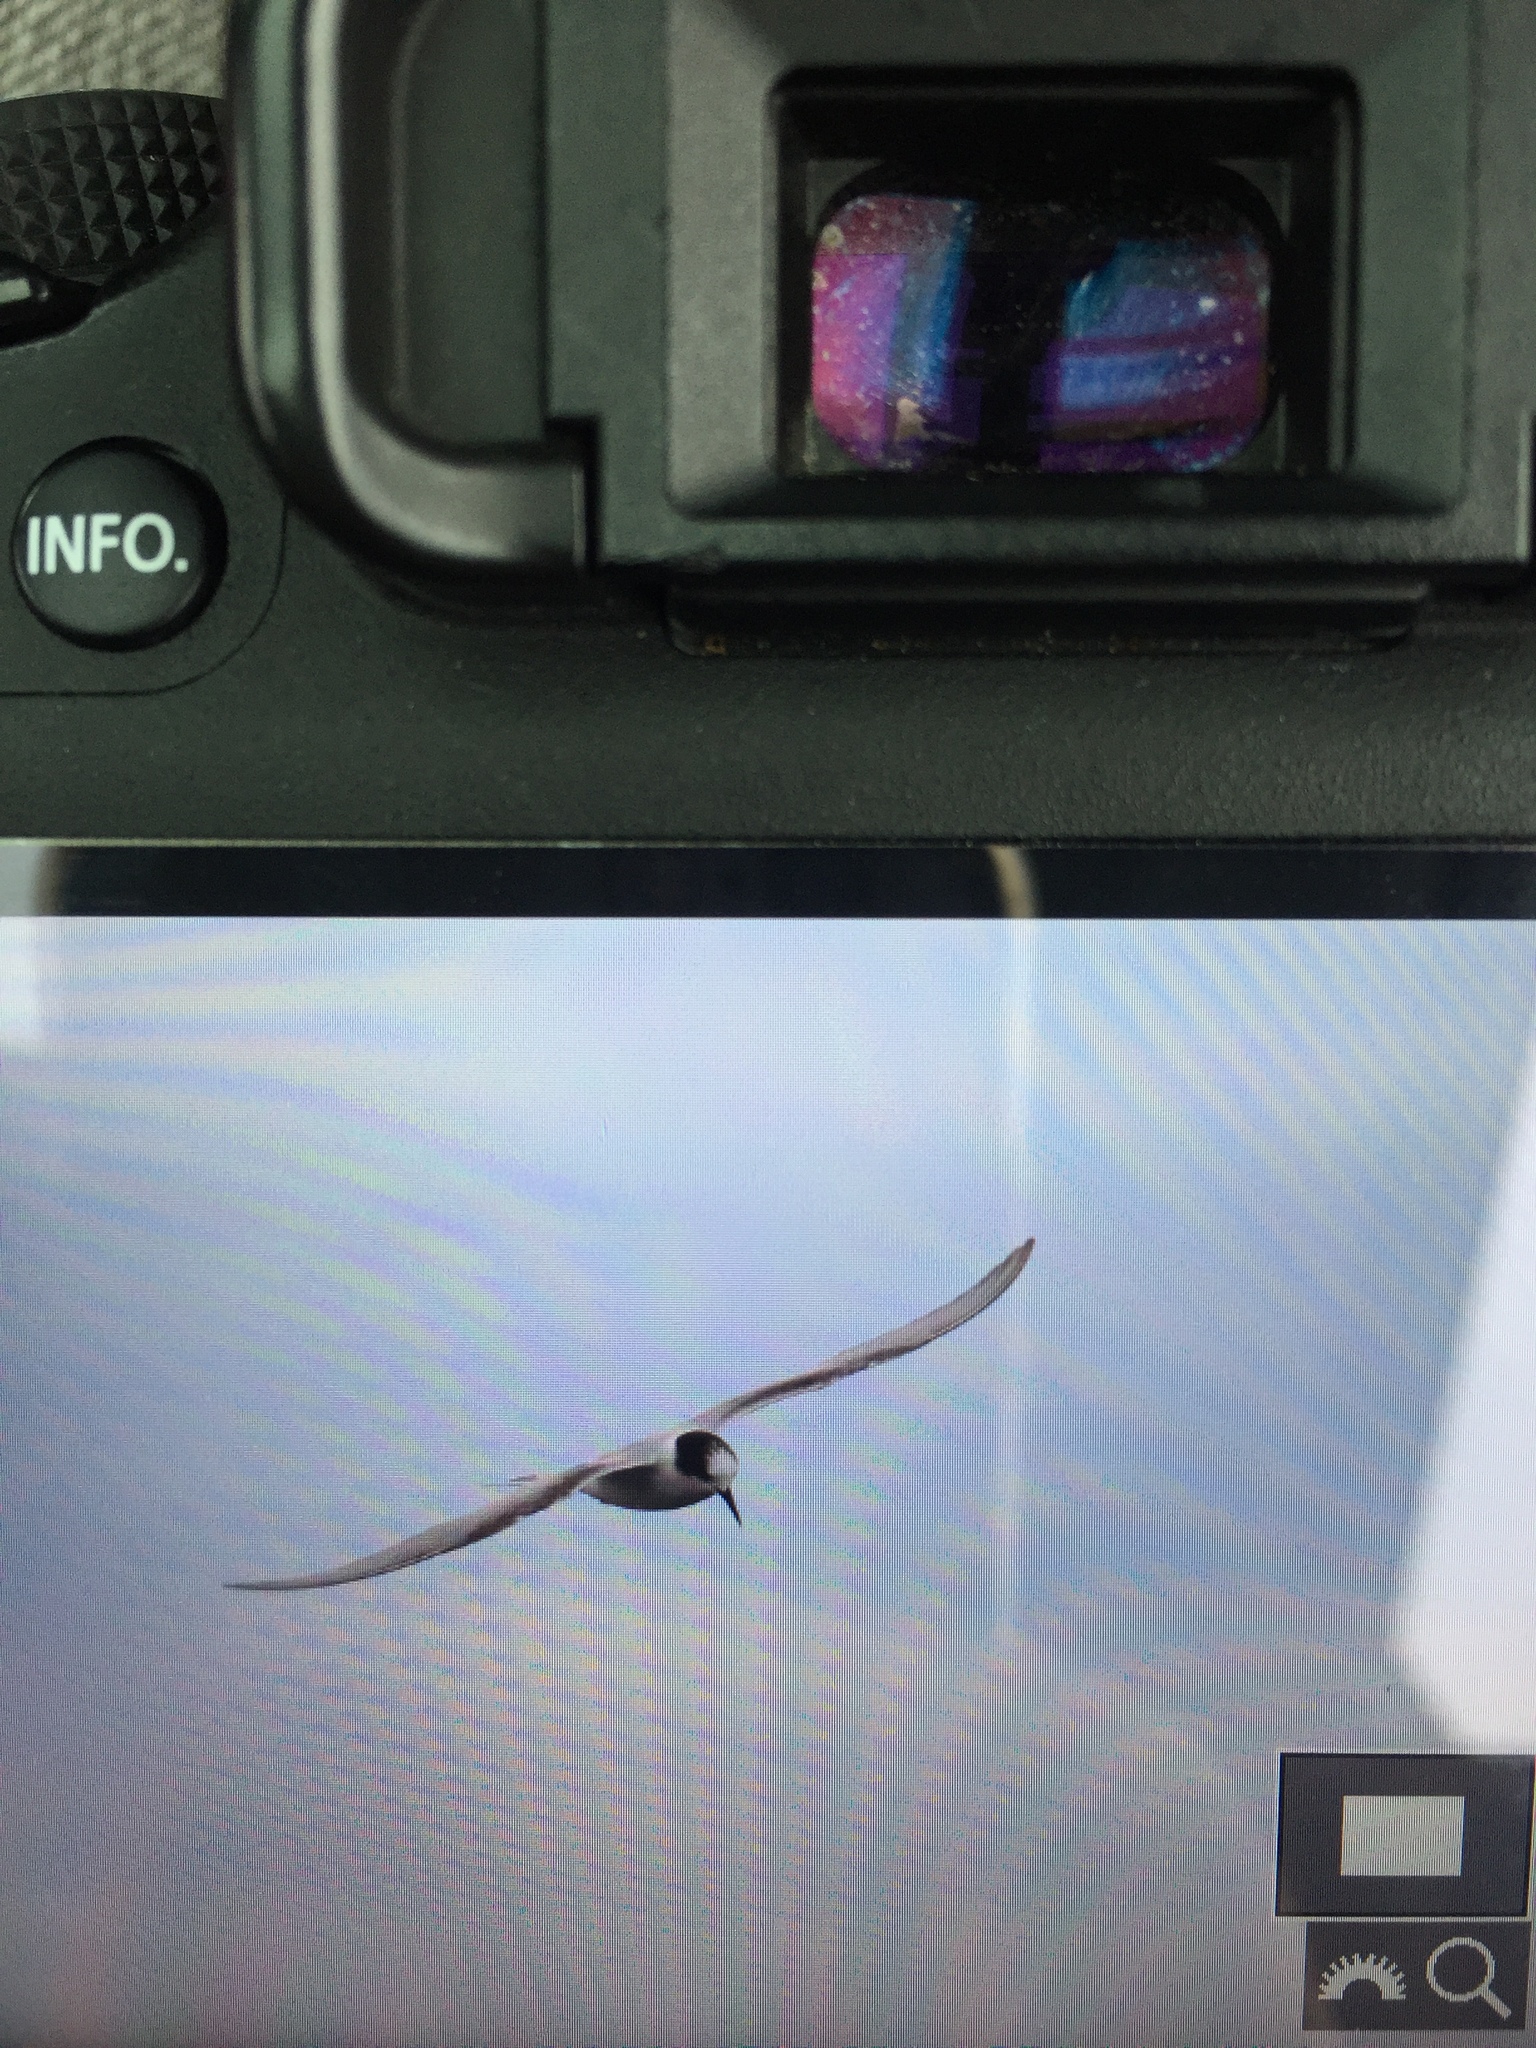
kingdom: Animalia
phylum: Chordata
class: Aves
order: Charadriiformes
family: Laridae
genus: Sterna
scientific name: Sterna paradisaea
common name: Arctic tern
